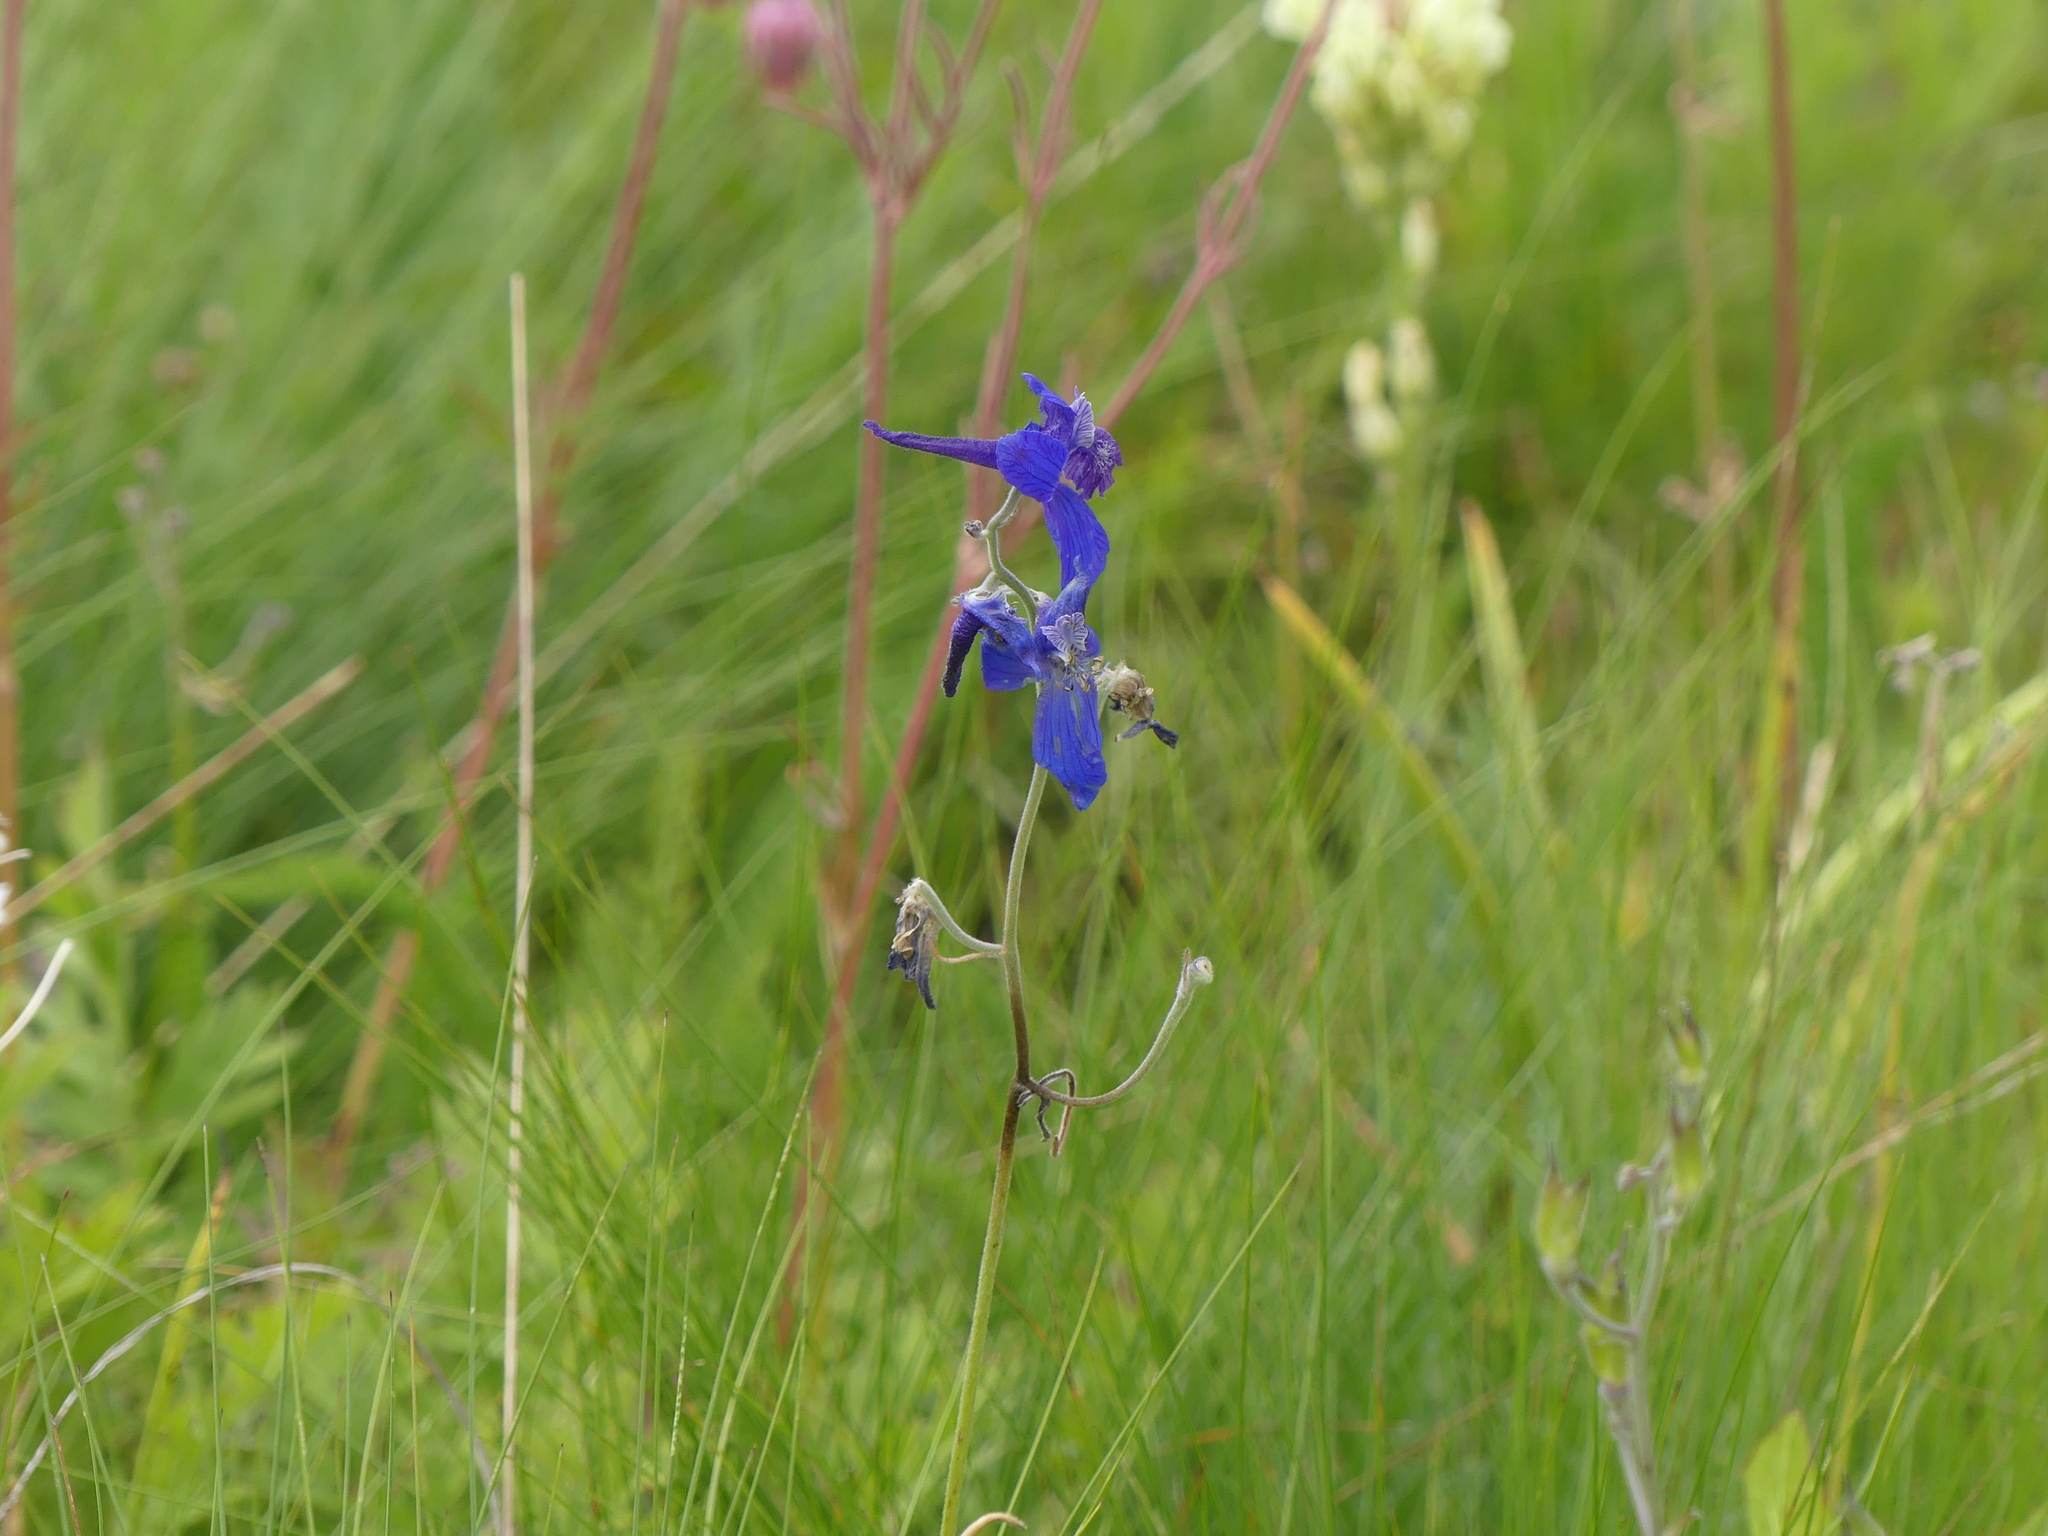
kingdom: Plantae
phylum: Tracheophyta
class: Magnoliopsida
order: Ranunculales
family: Ranunculaceae
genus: Delphinium
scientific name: Delphinium nuttallianum
